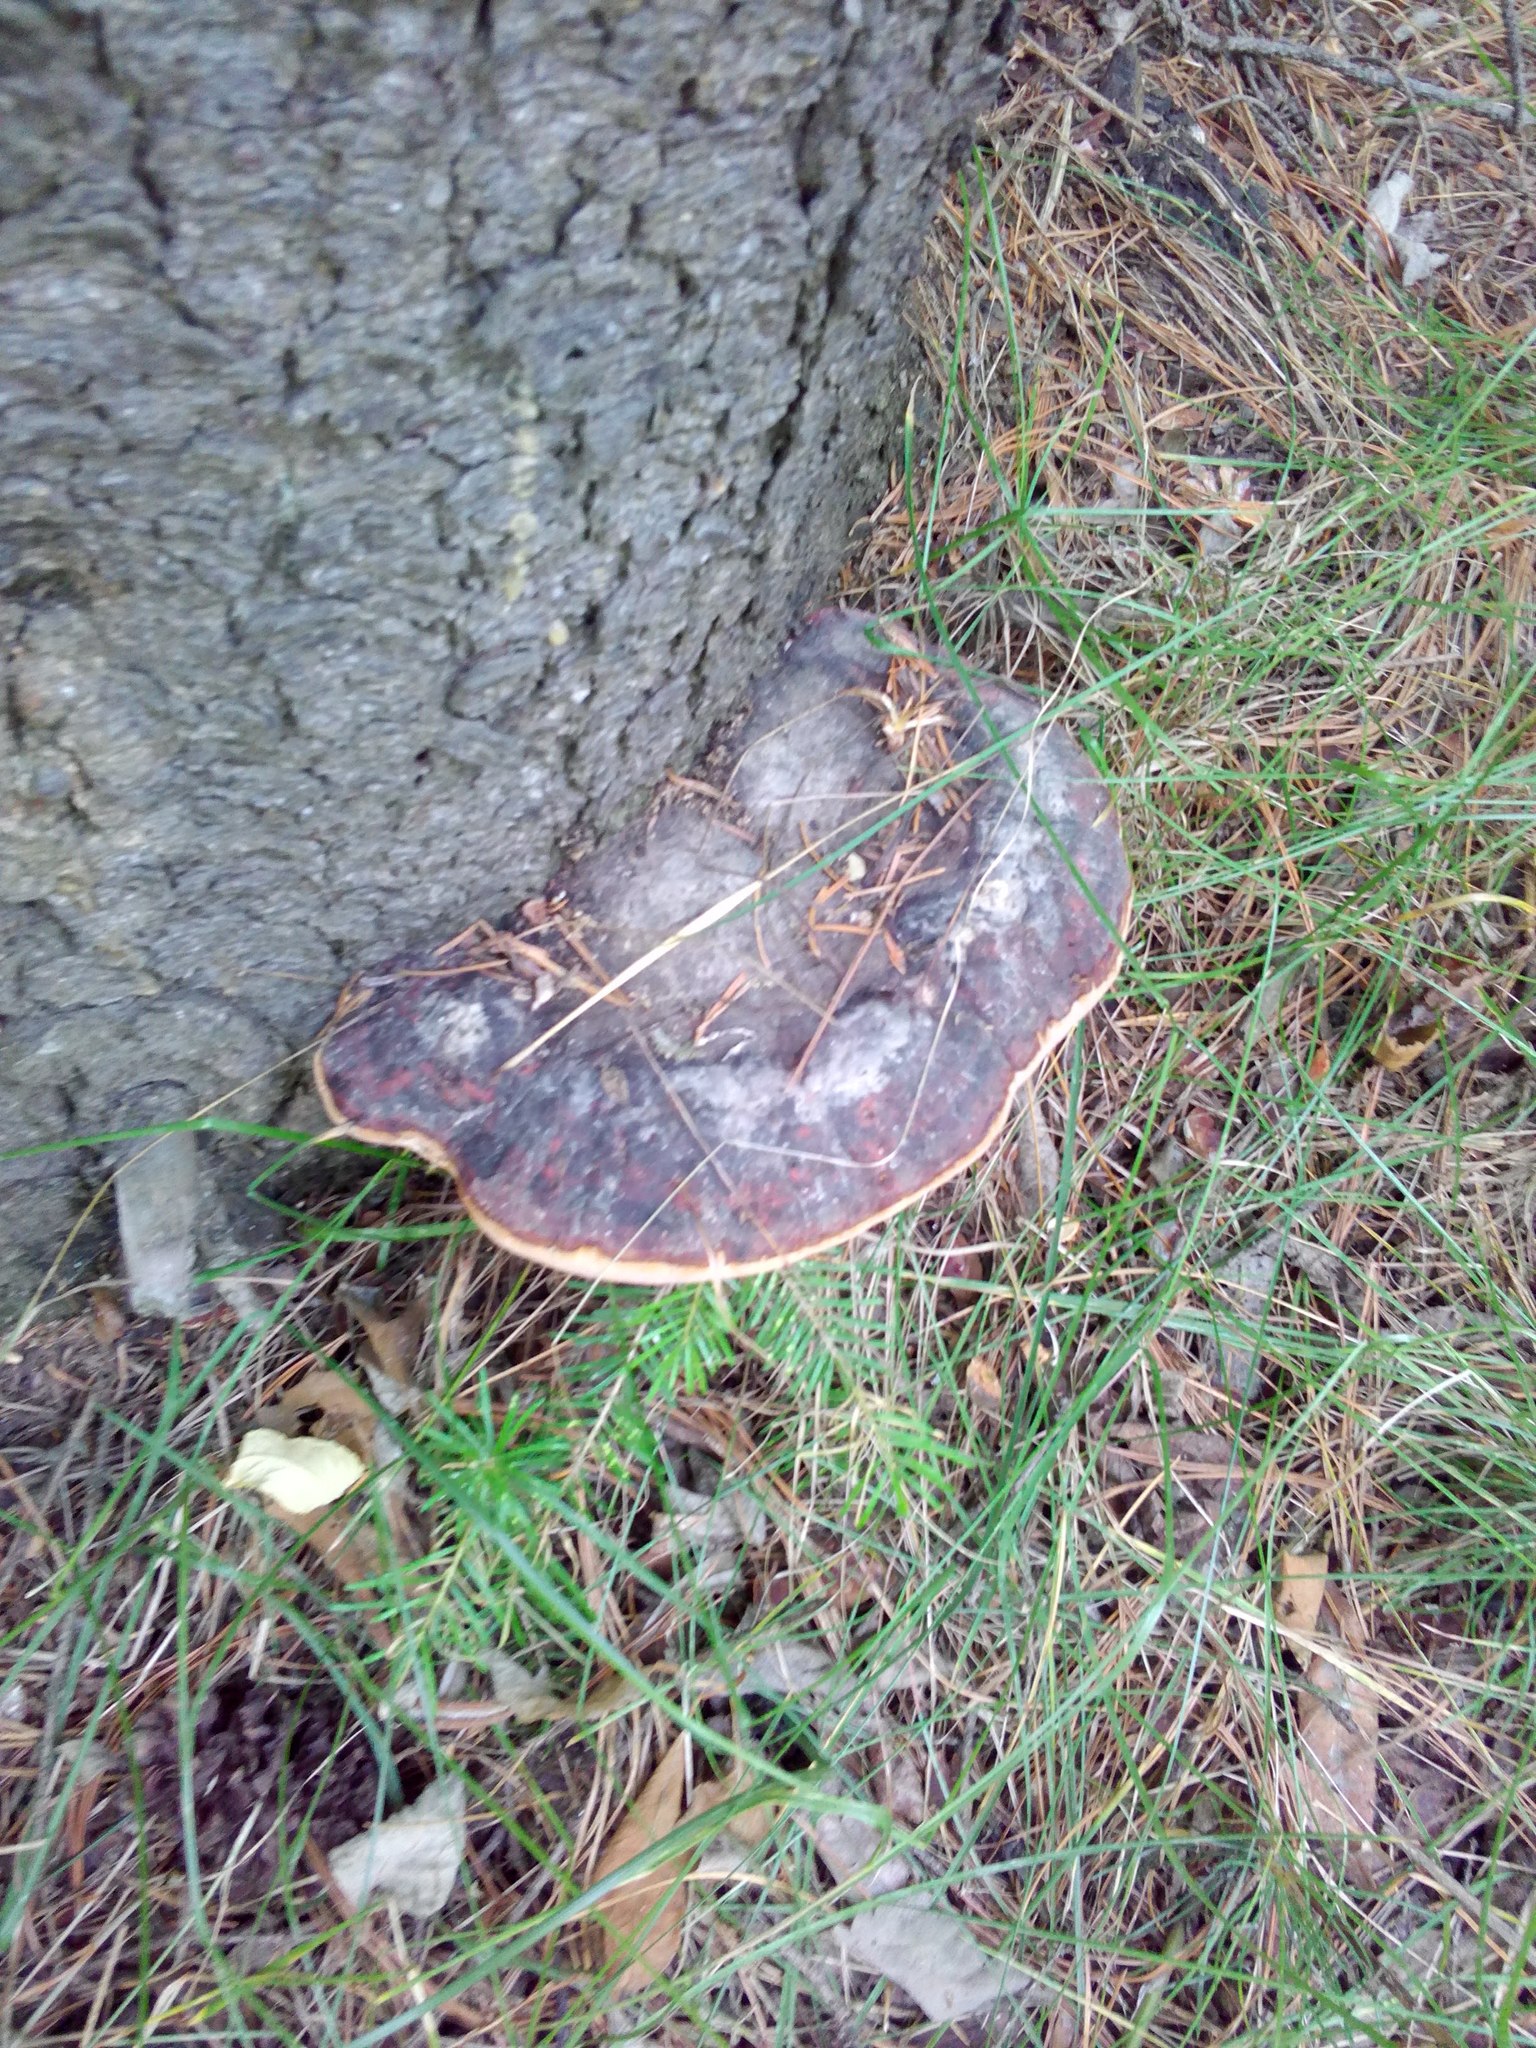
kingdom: Fungi
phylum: Basidiomycota
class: Agaricomycetes
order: Polyporales
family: Fomitopsidaceae
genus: Fomitopsis
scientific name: Fomitopsis pinicola
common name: Red-belted bracket
